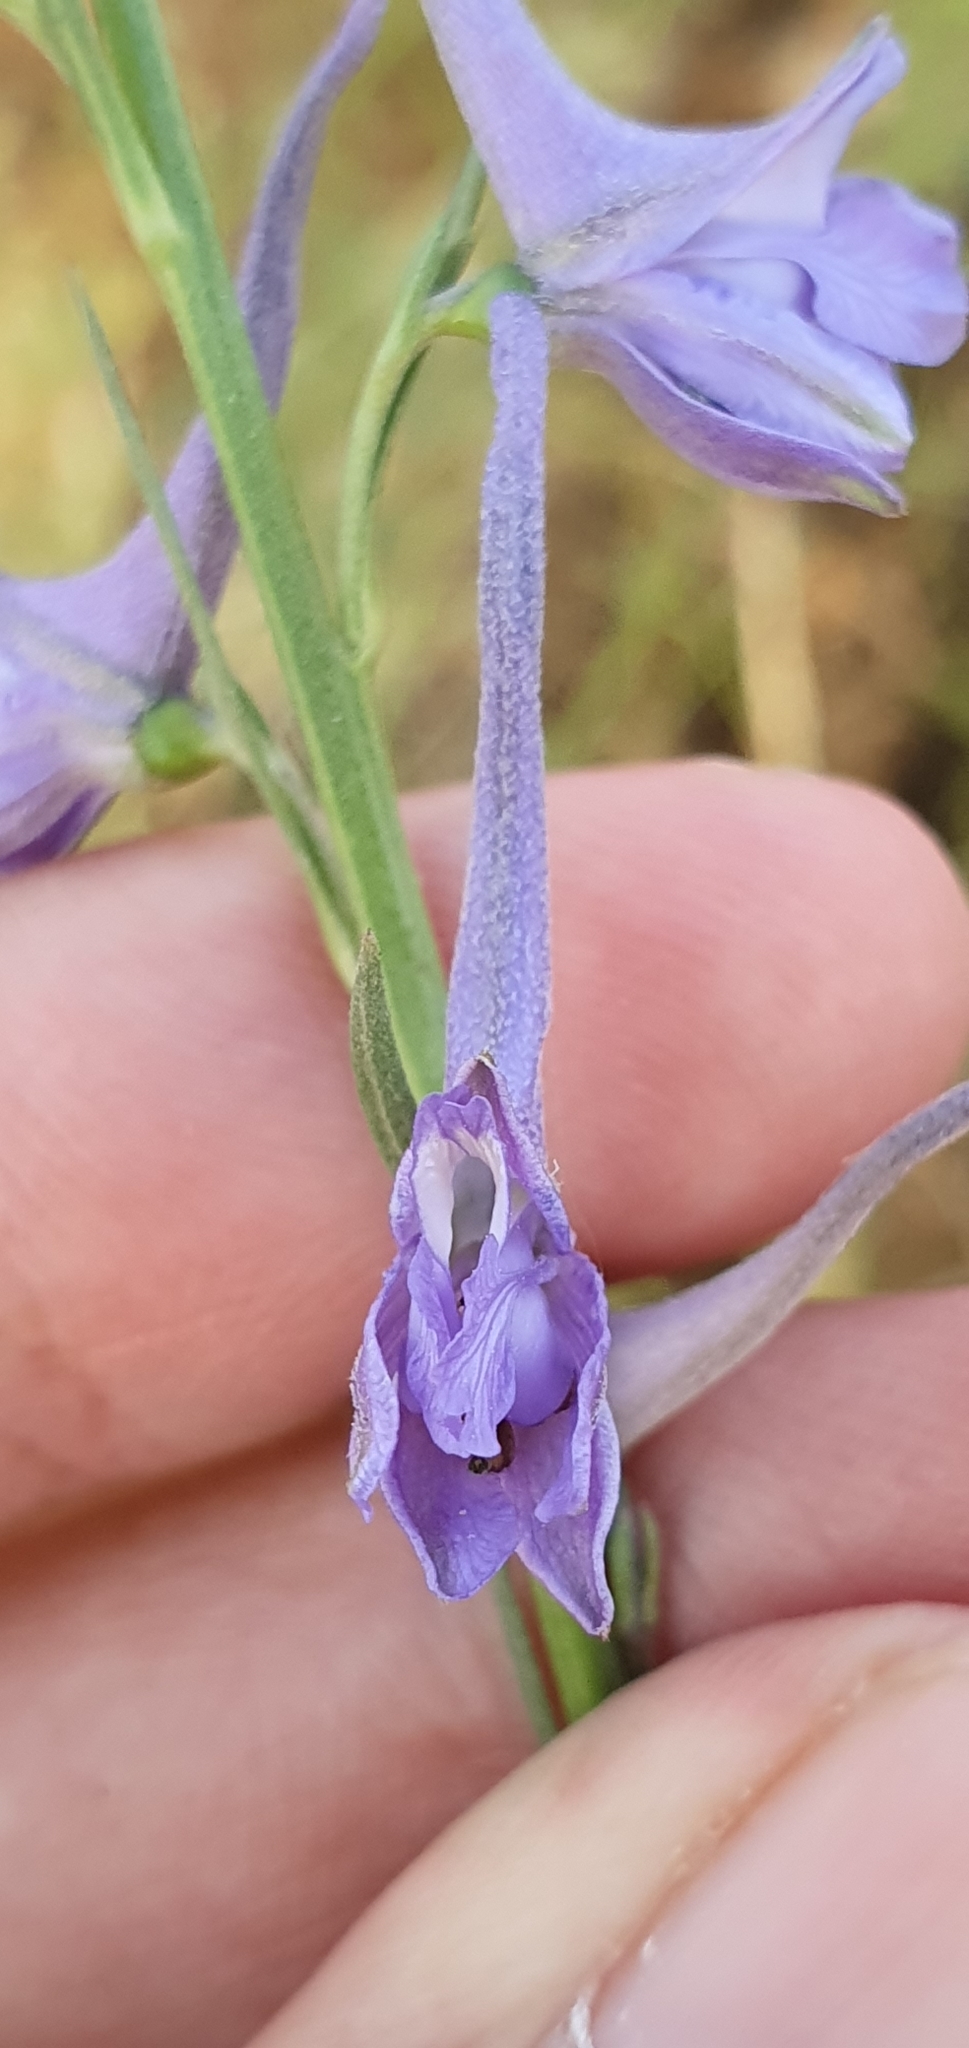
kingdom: Plantae
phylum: Tracheophyta
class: Magnoliopsida
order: Ranunculales
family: Ranunculaceae
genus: Delphinium
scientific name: Delphinium halteratum
